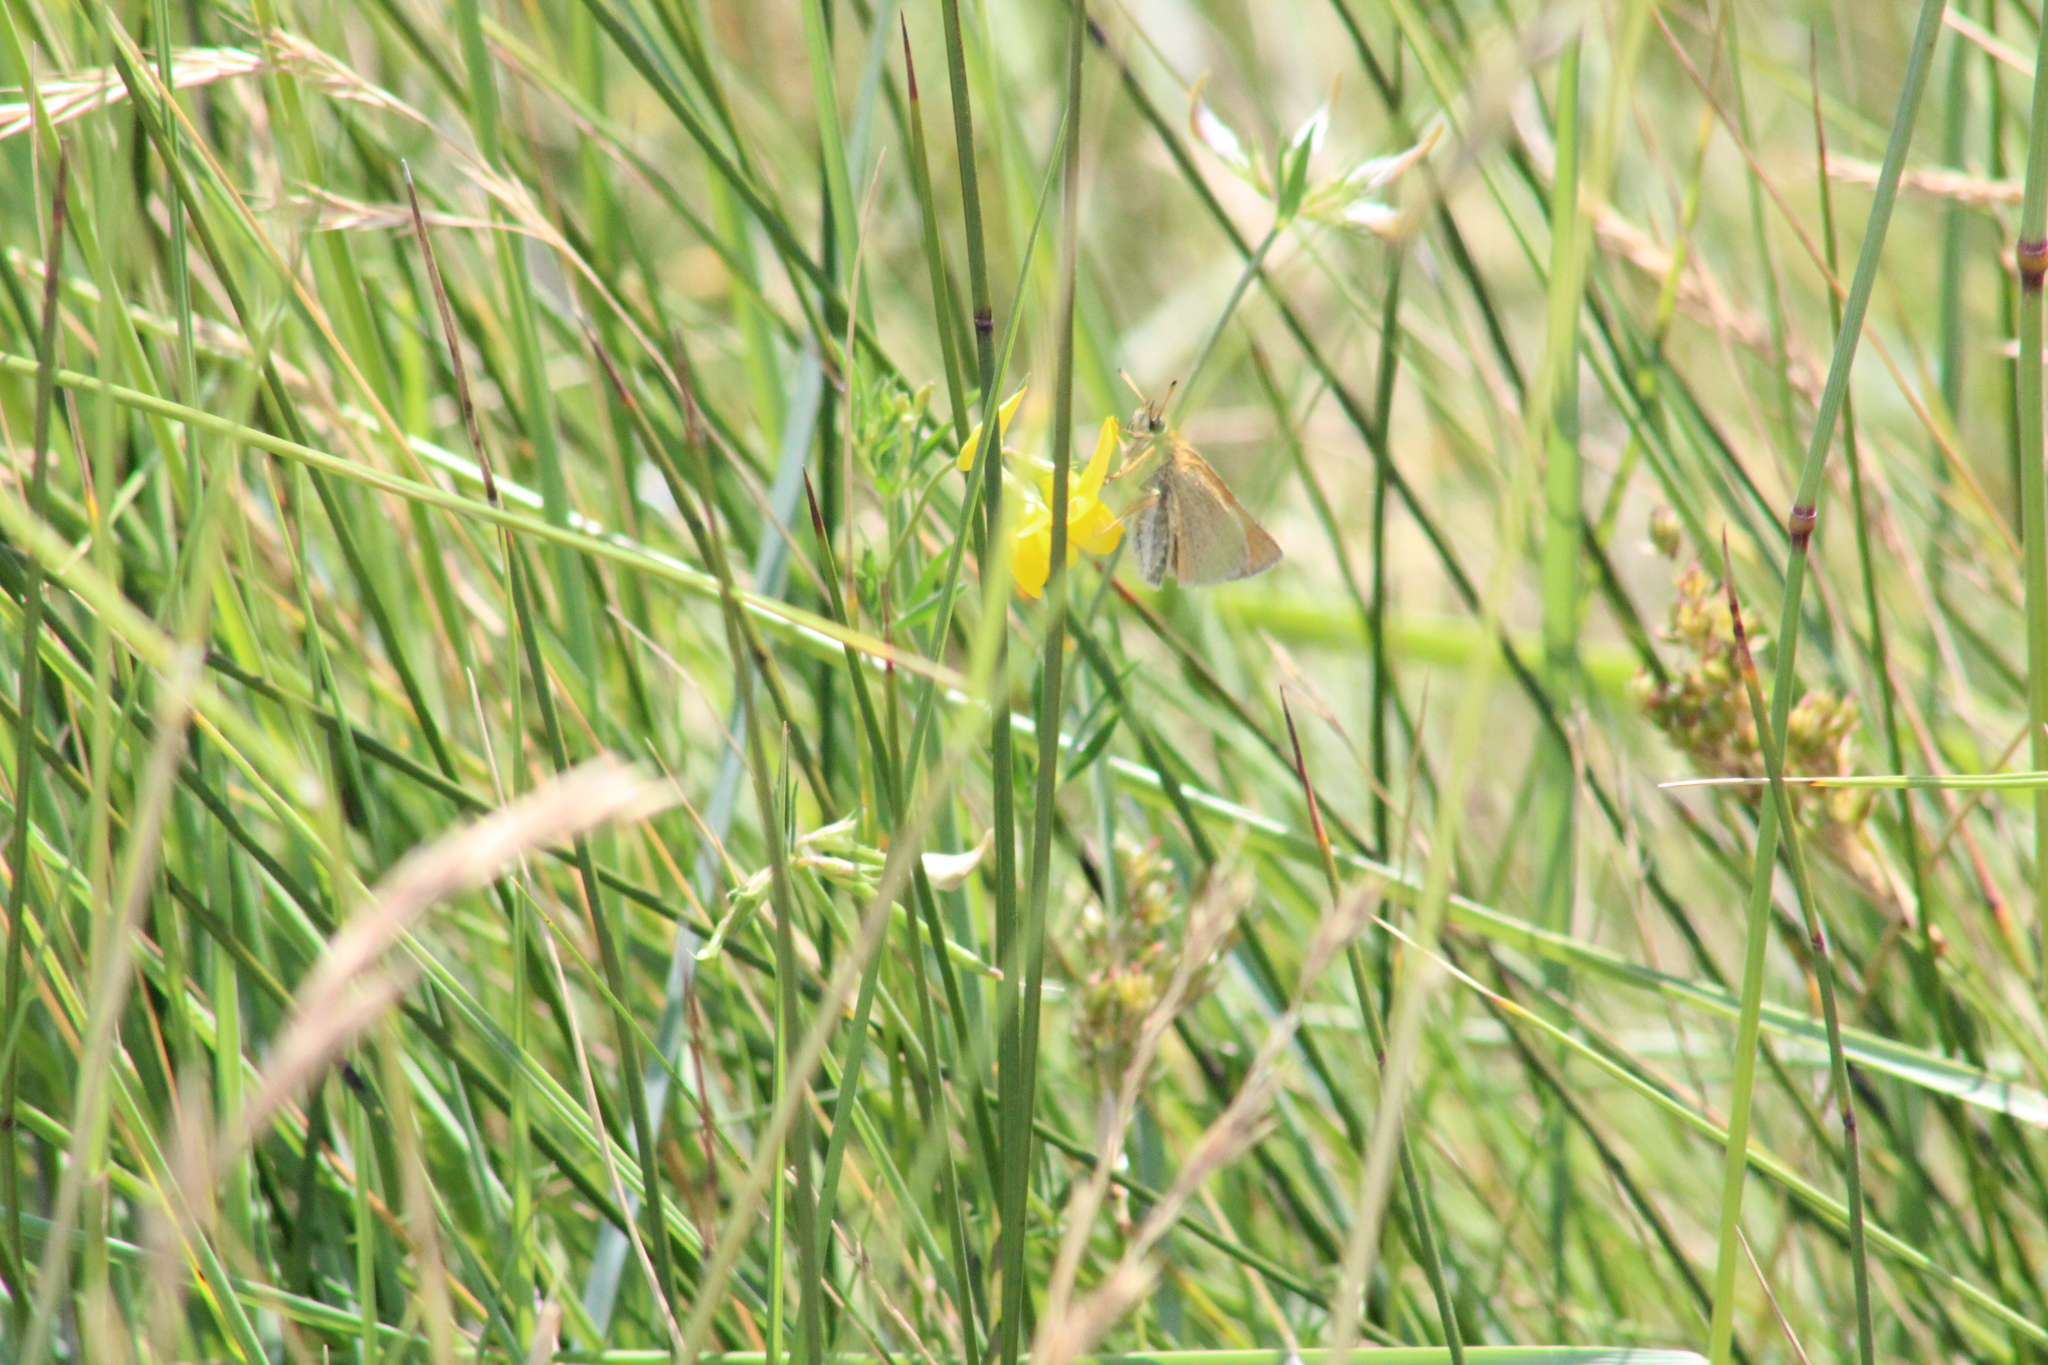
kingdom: Animalia
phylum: Arthropoda
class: Insecta
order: Lepidoptera
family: Hesperiidae
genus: Thymelicus
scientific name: Thymelicus lineola
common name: Essex skipper
